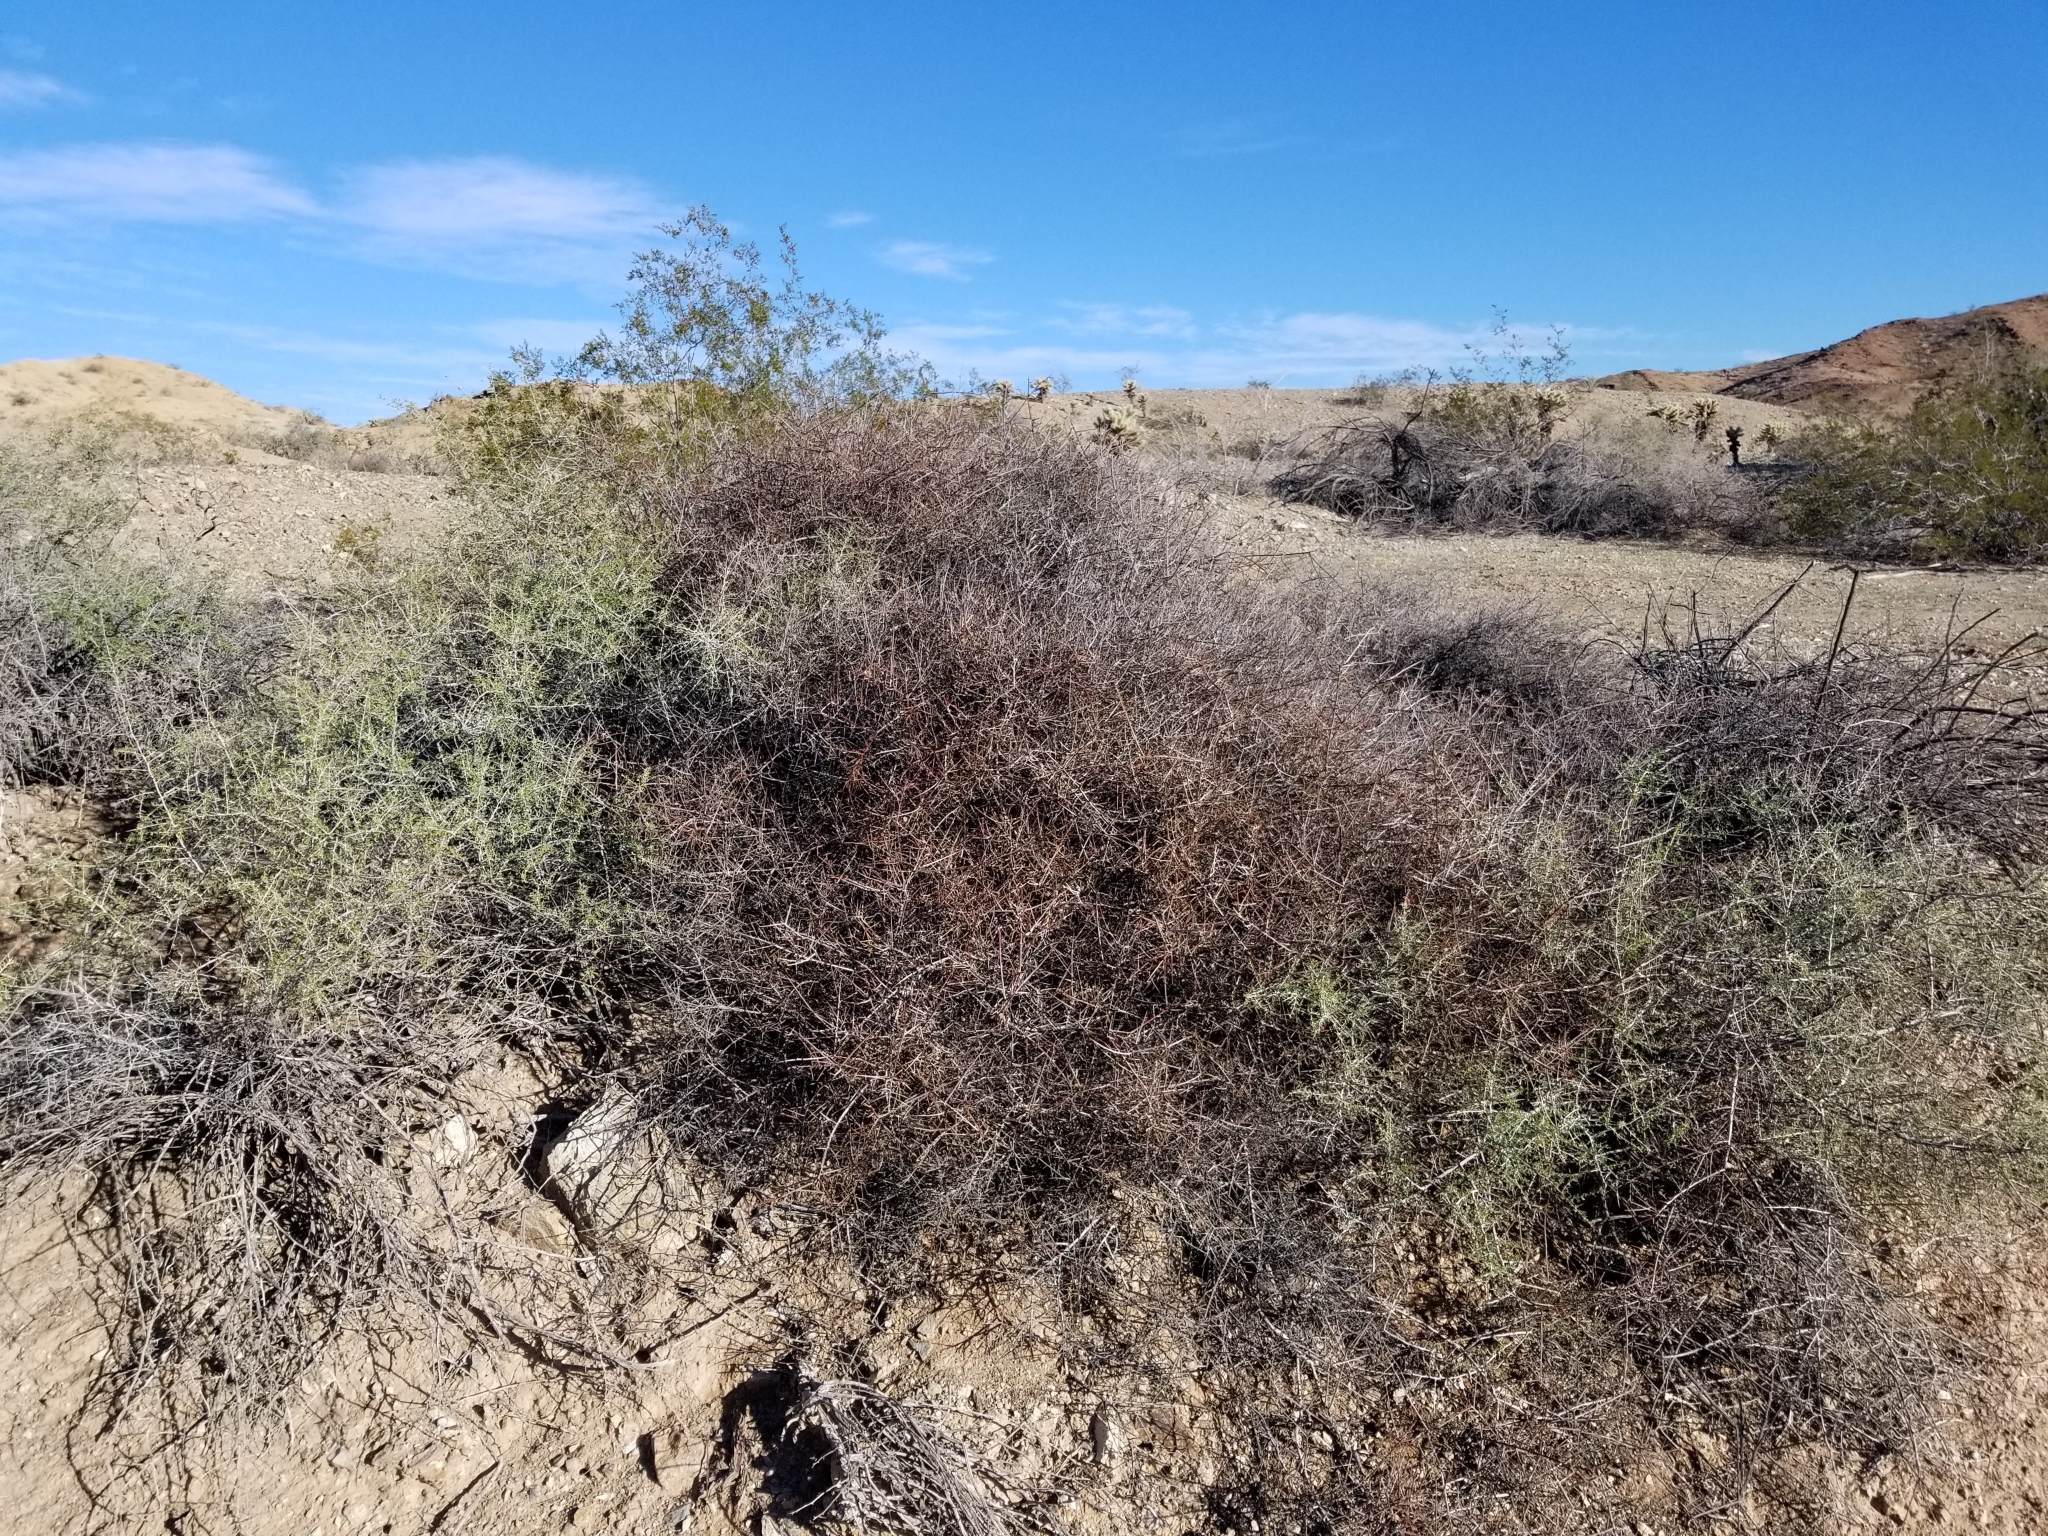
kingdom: Plantae
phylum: Tracheophyta
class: Magnoliopsida
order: Zygophyllales
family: Krameriaceae
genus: Krameria
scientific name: Krameria bicolor
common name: White ratany
